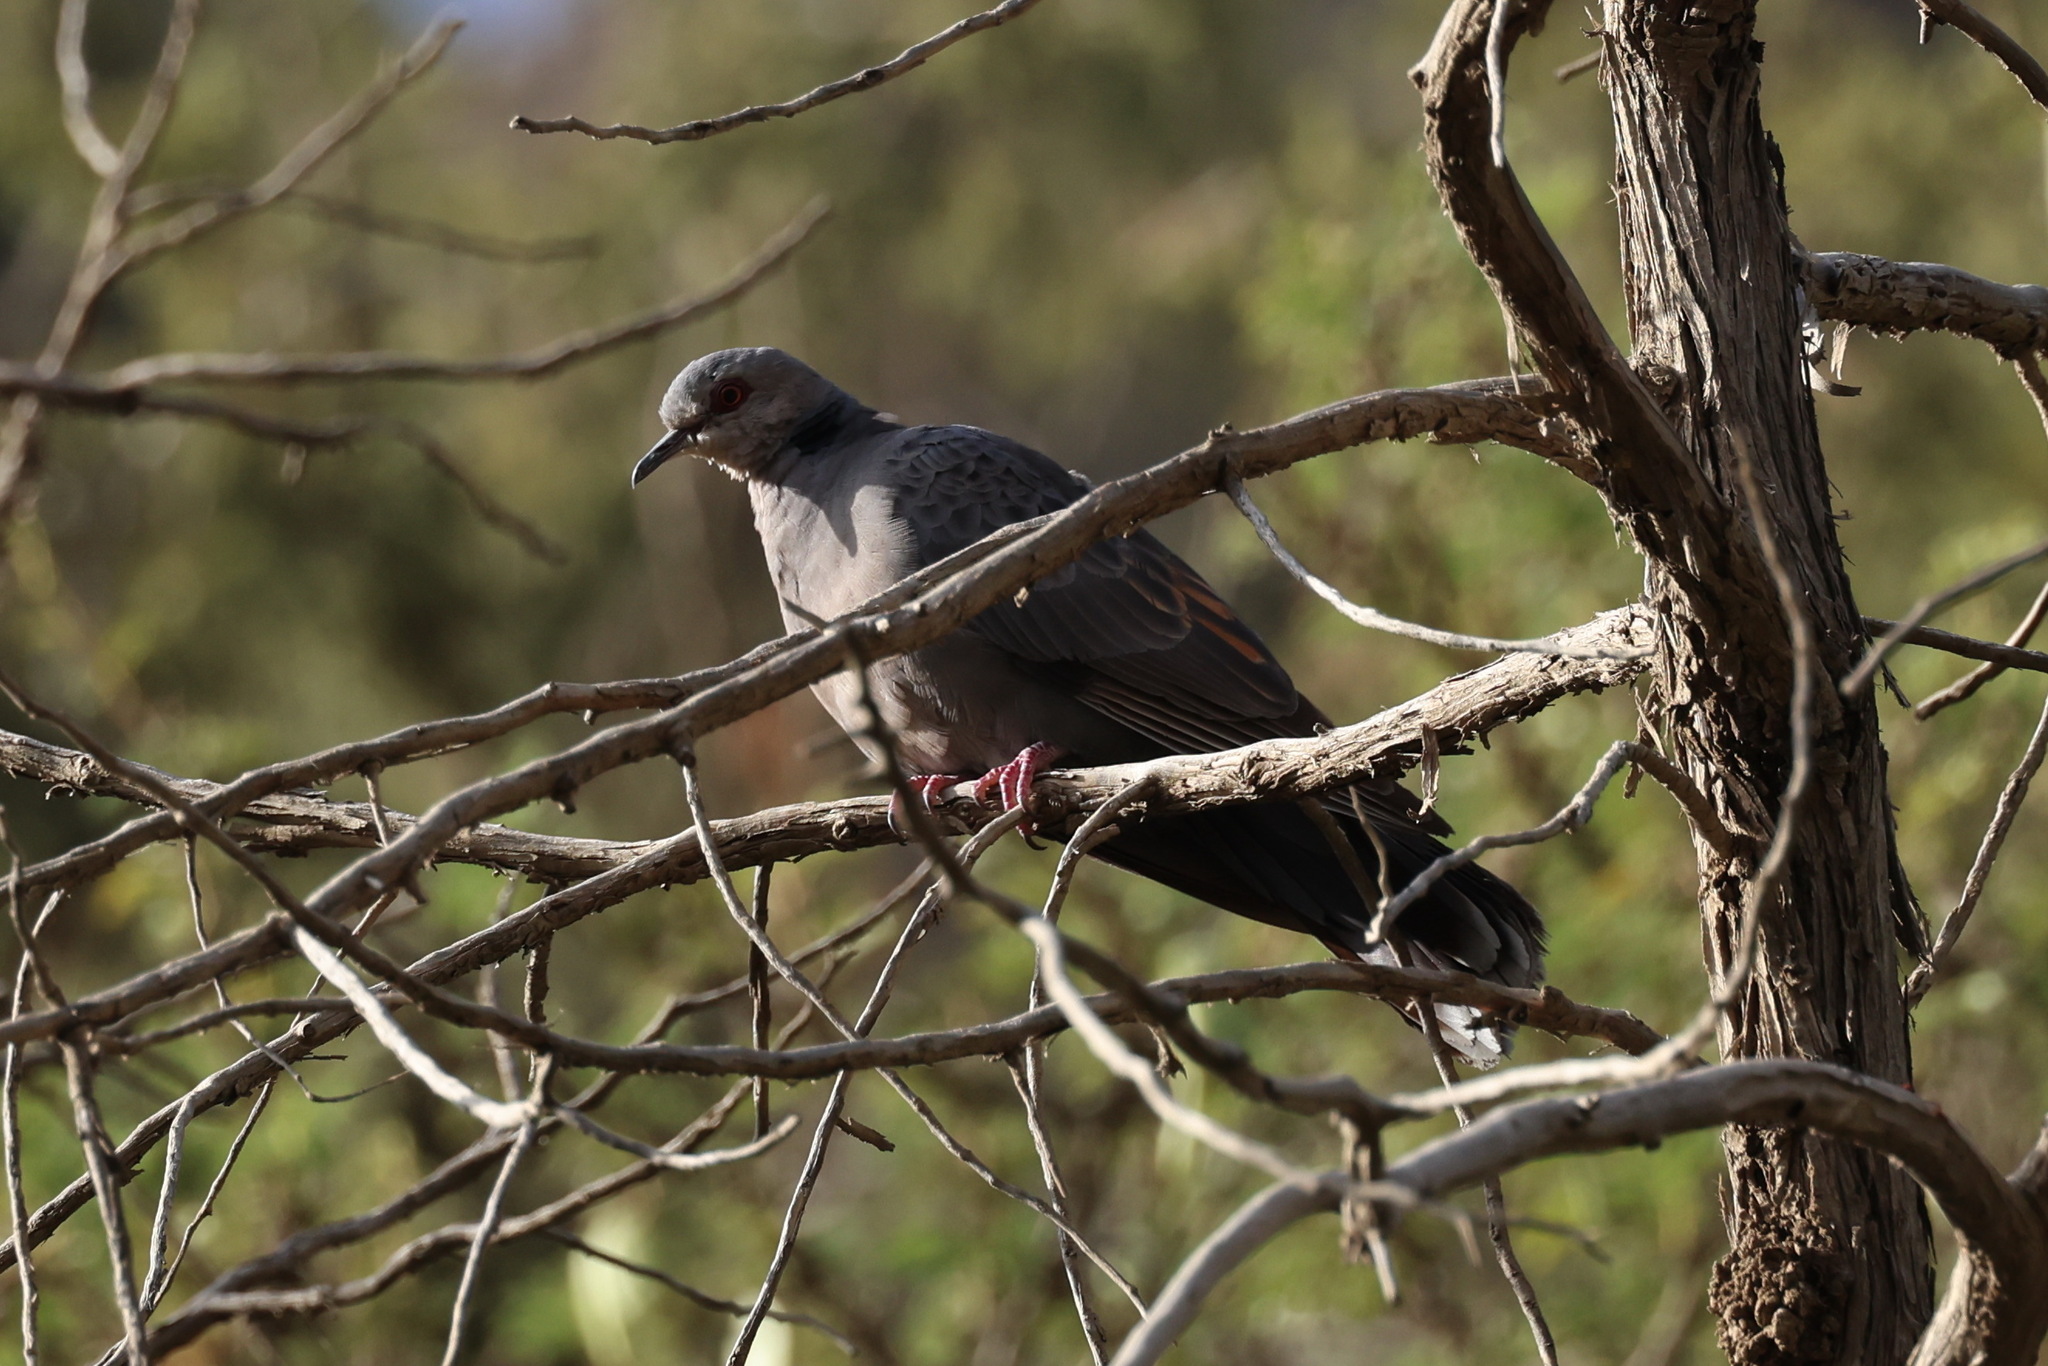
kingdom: Animalia
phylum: Chordata
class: Aves
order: Columbiformes
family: Columbidae
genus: Streptopelia
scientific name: Streptopelia lugens
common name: Dusky turtle dove
